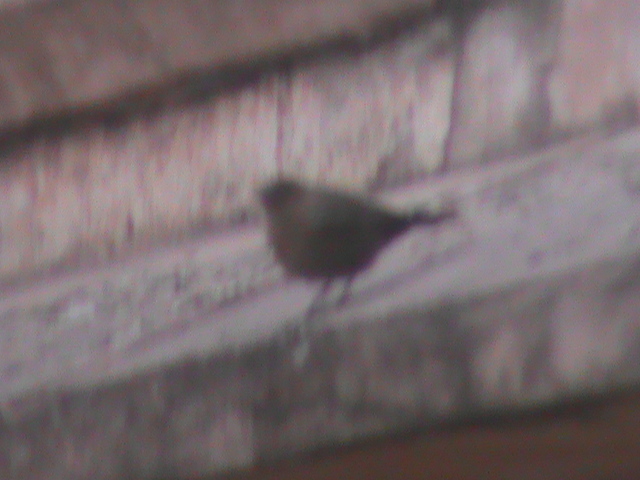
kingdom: Animalia
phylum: Chordata
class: Aves
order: Passeriformes
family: Muscicapidae
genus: Oenanthe
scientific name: Oenanthe fusca
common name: Brown rock chat
